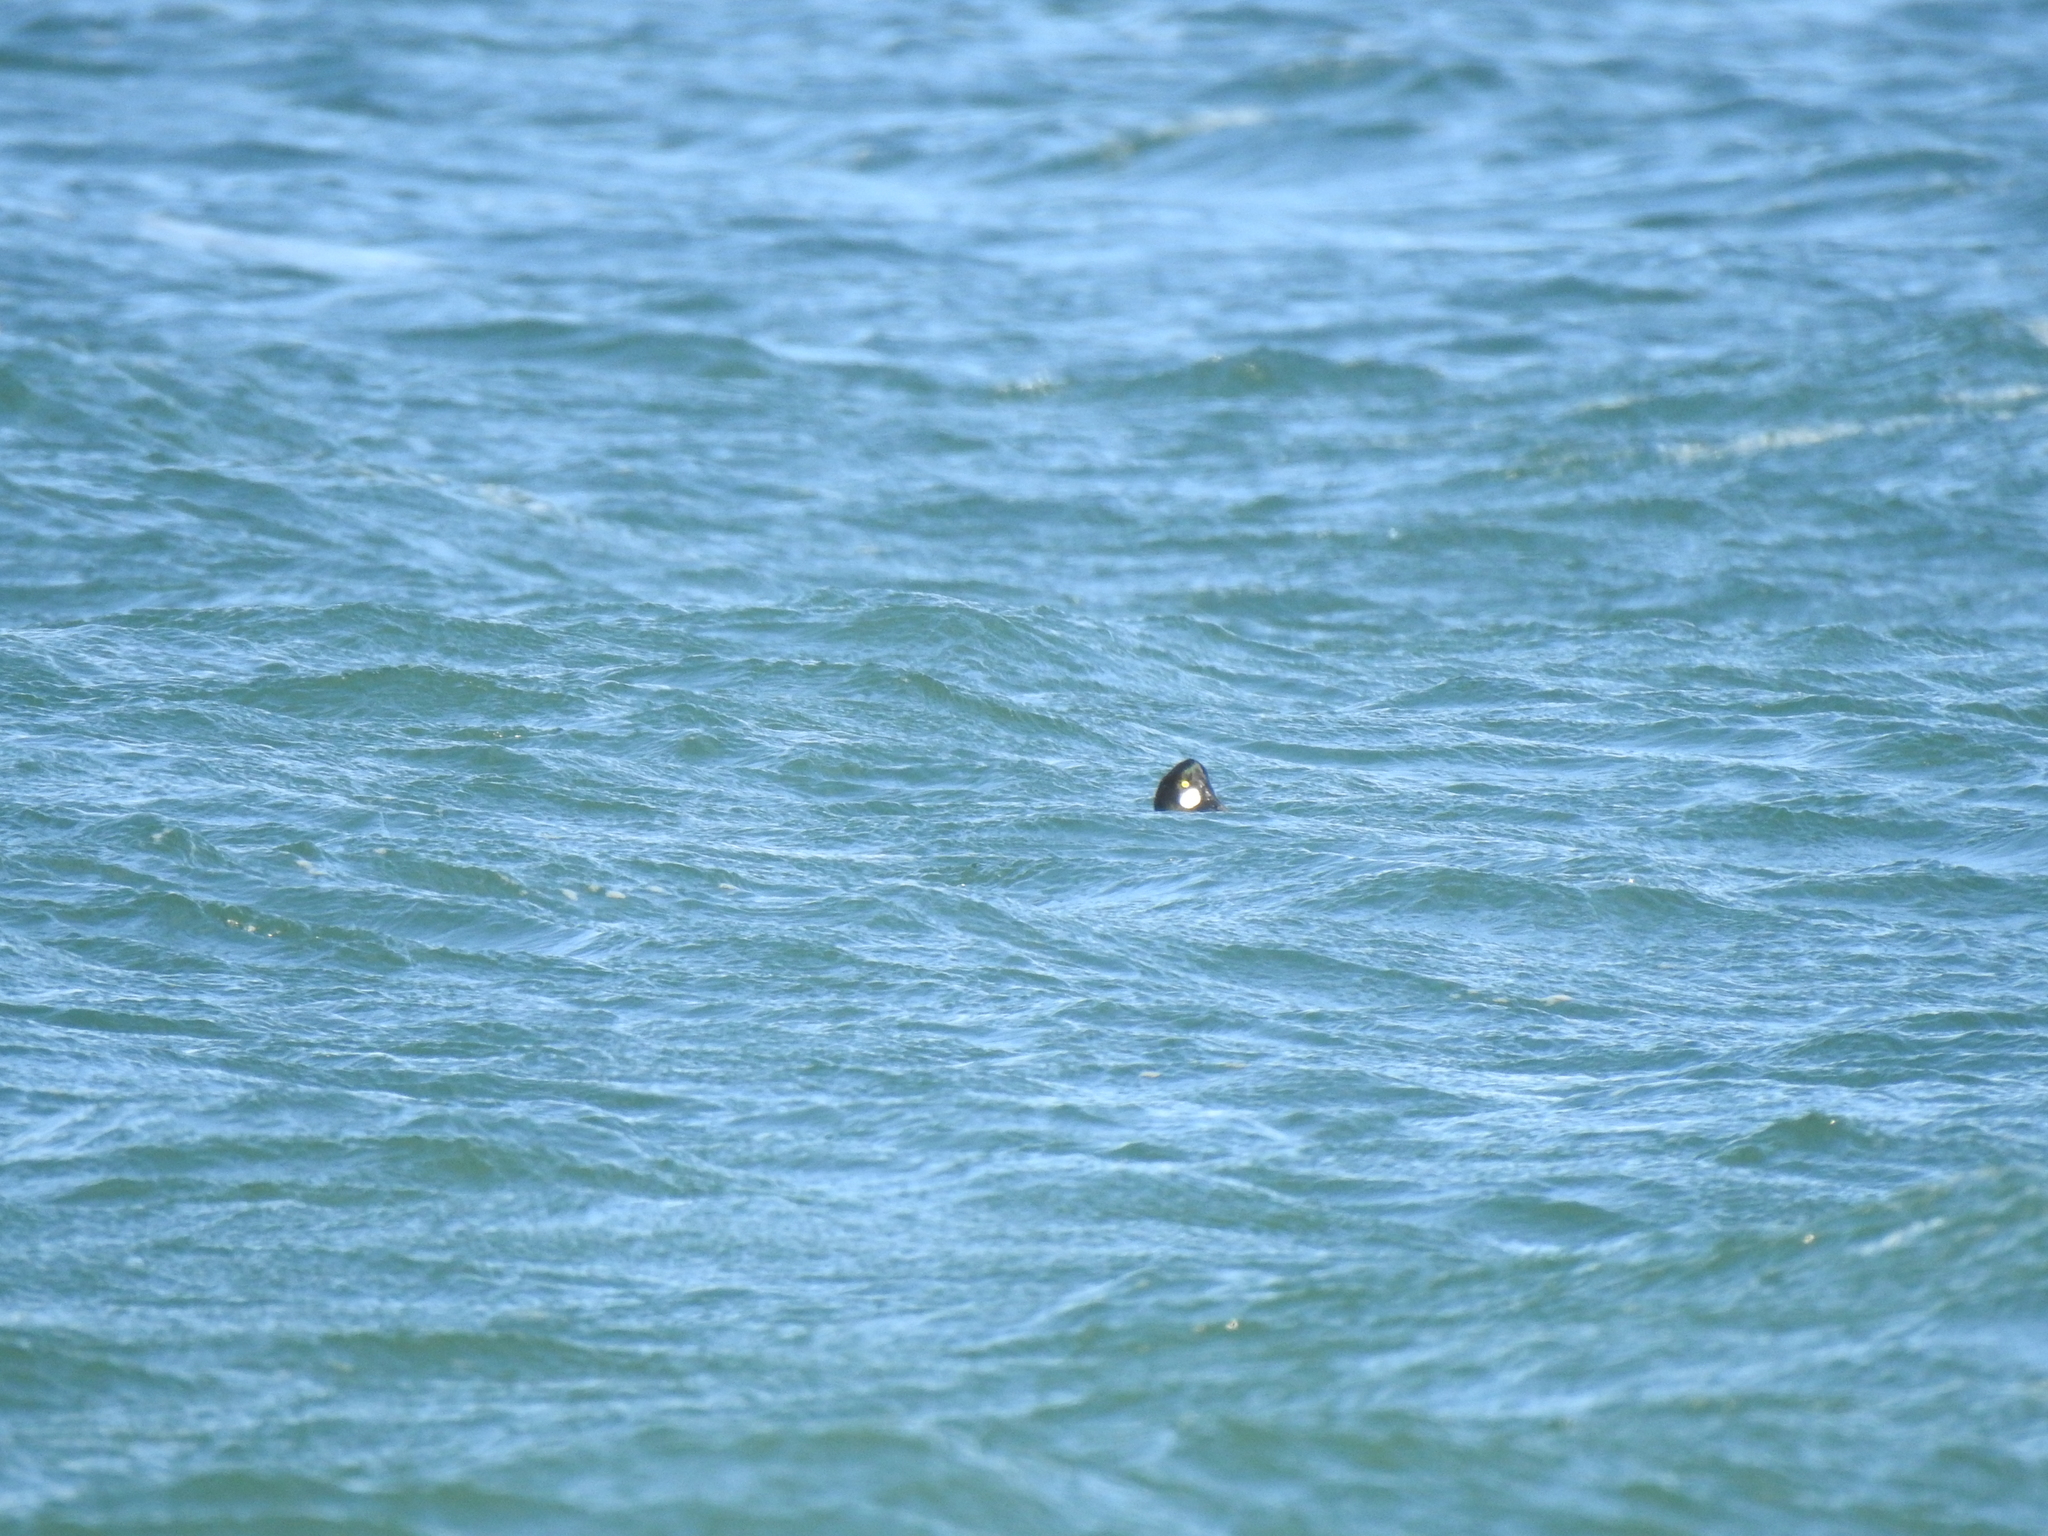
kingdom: Animalia
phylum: Chordata
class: Aves
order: Anseriformes
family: Anatidae
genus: Bucephala
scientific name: Bucephala clangula
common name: Common goldeneye
